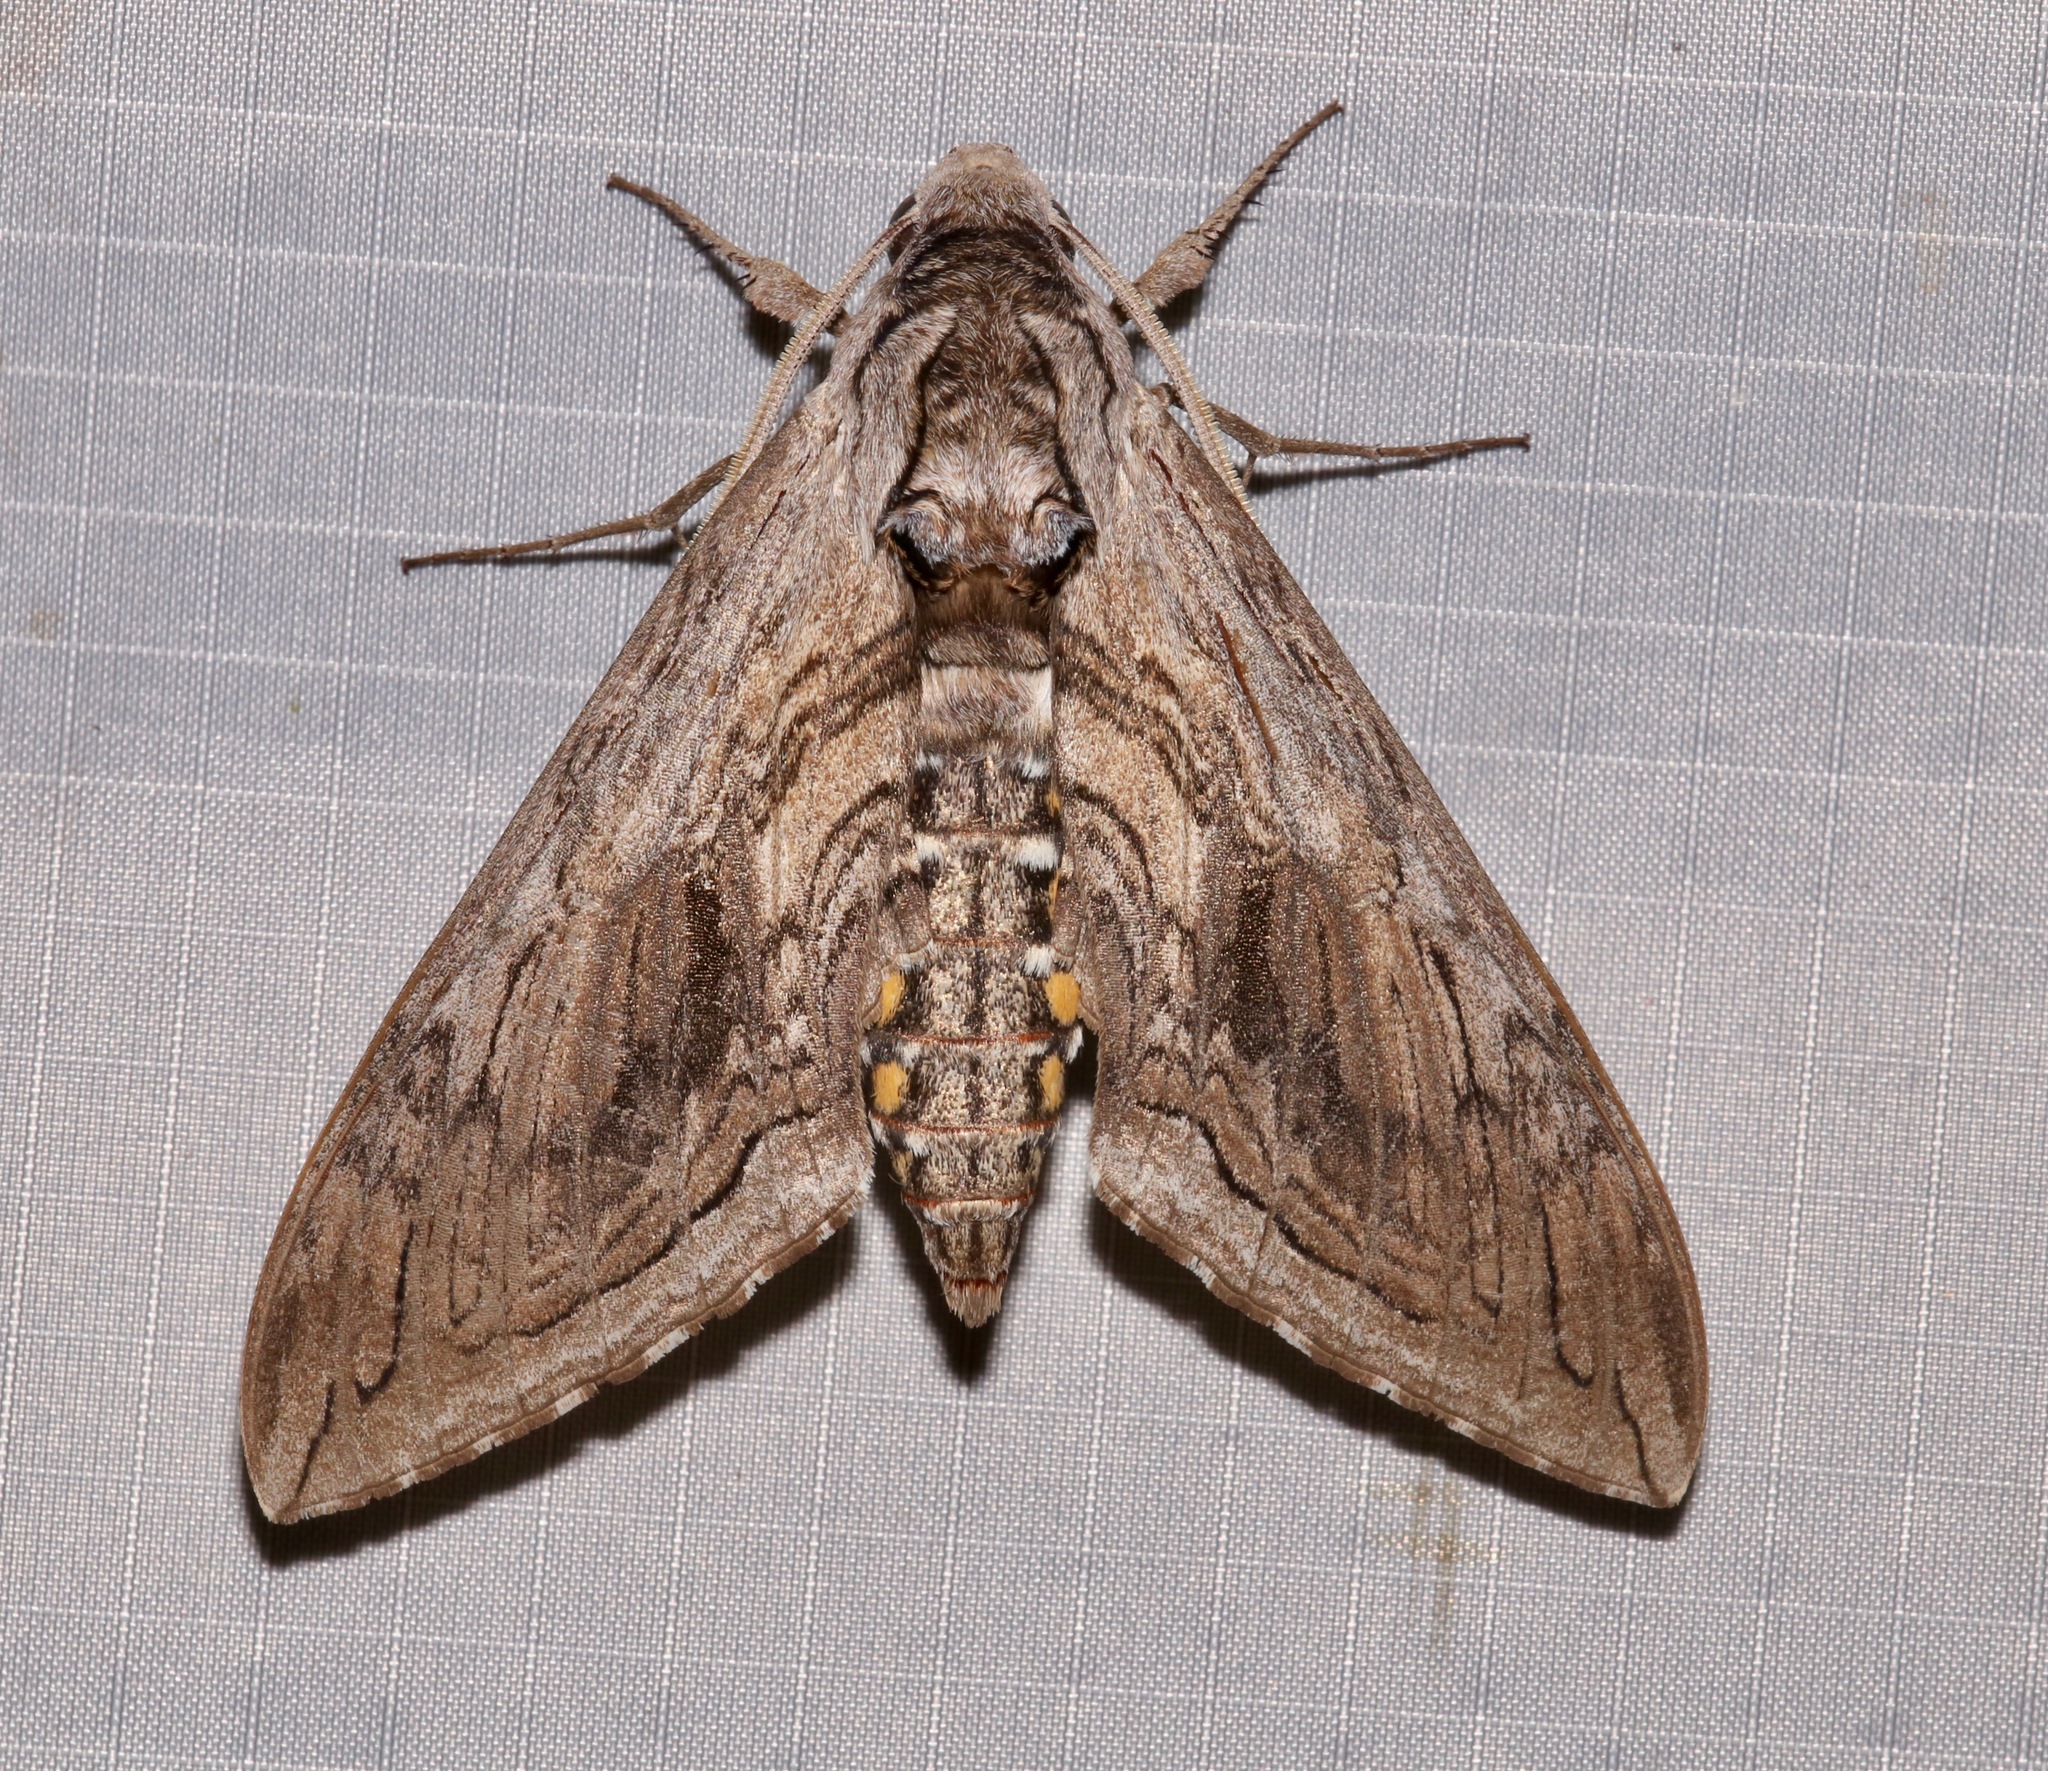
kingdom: Animalia
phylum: Arthropoda
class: Insecta
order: Lepidoptera
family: Sphingidae
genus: Manduca
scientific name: Manduca quinquemaculatus
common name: Five-spotted hawk-moth
